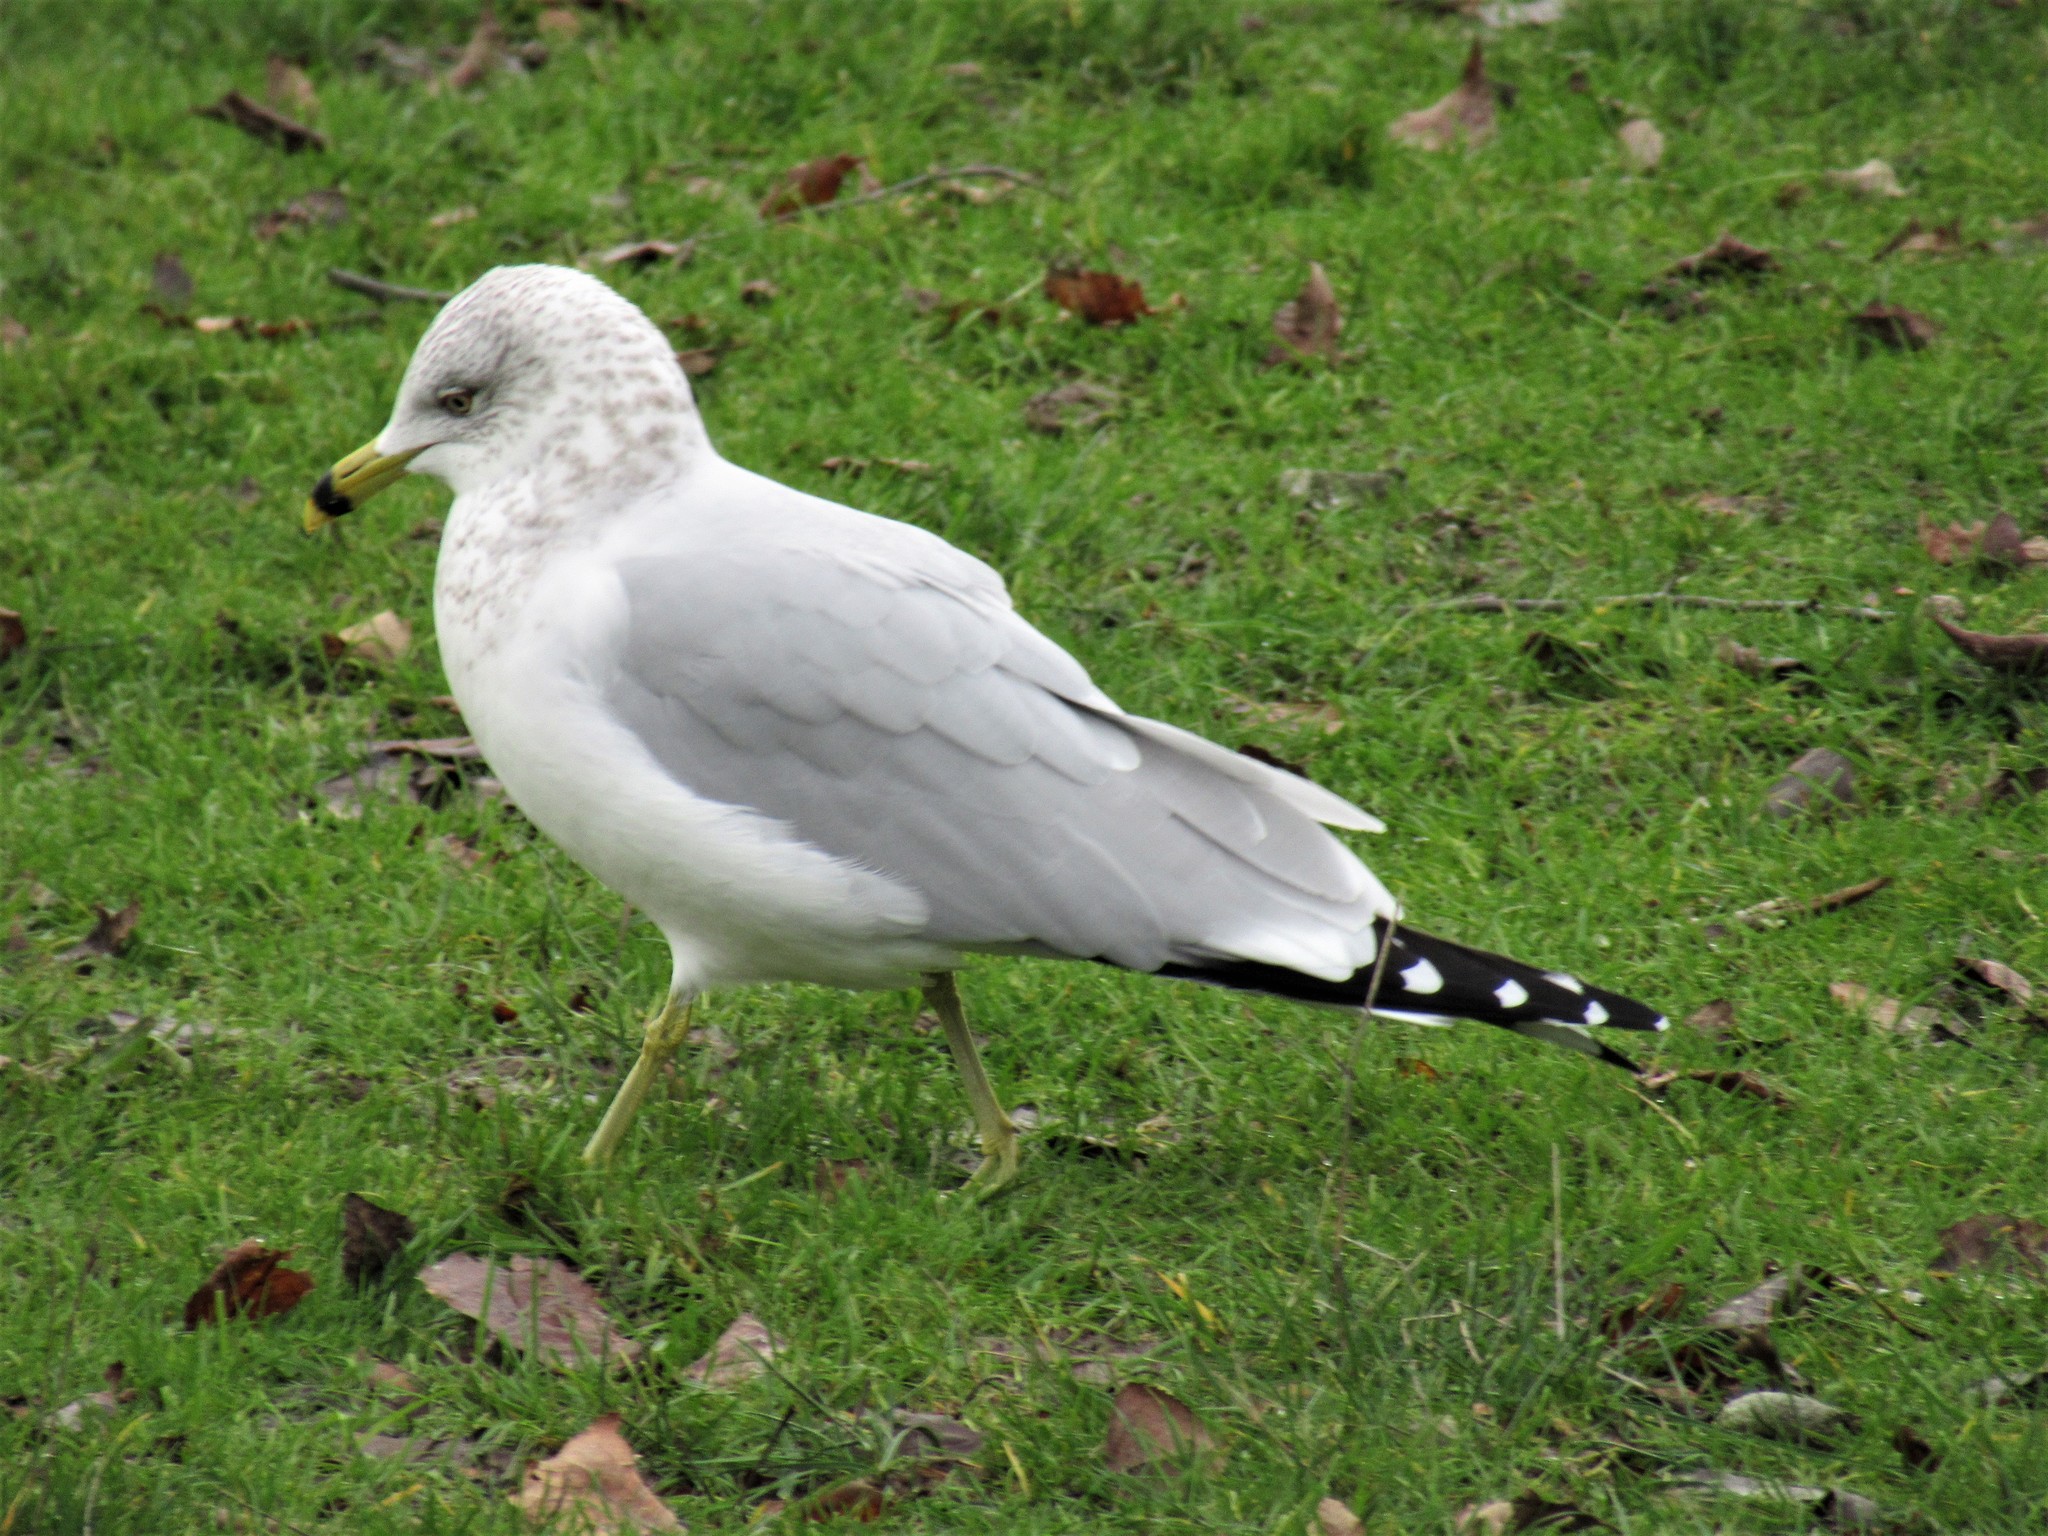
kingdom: Animalia
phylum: Chordata
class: Aves
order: Charadriiformes
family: Laridae
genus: Larus
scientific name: Larus delawarensis
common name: Ring-billed gull
